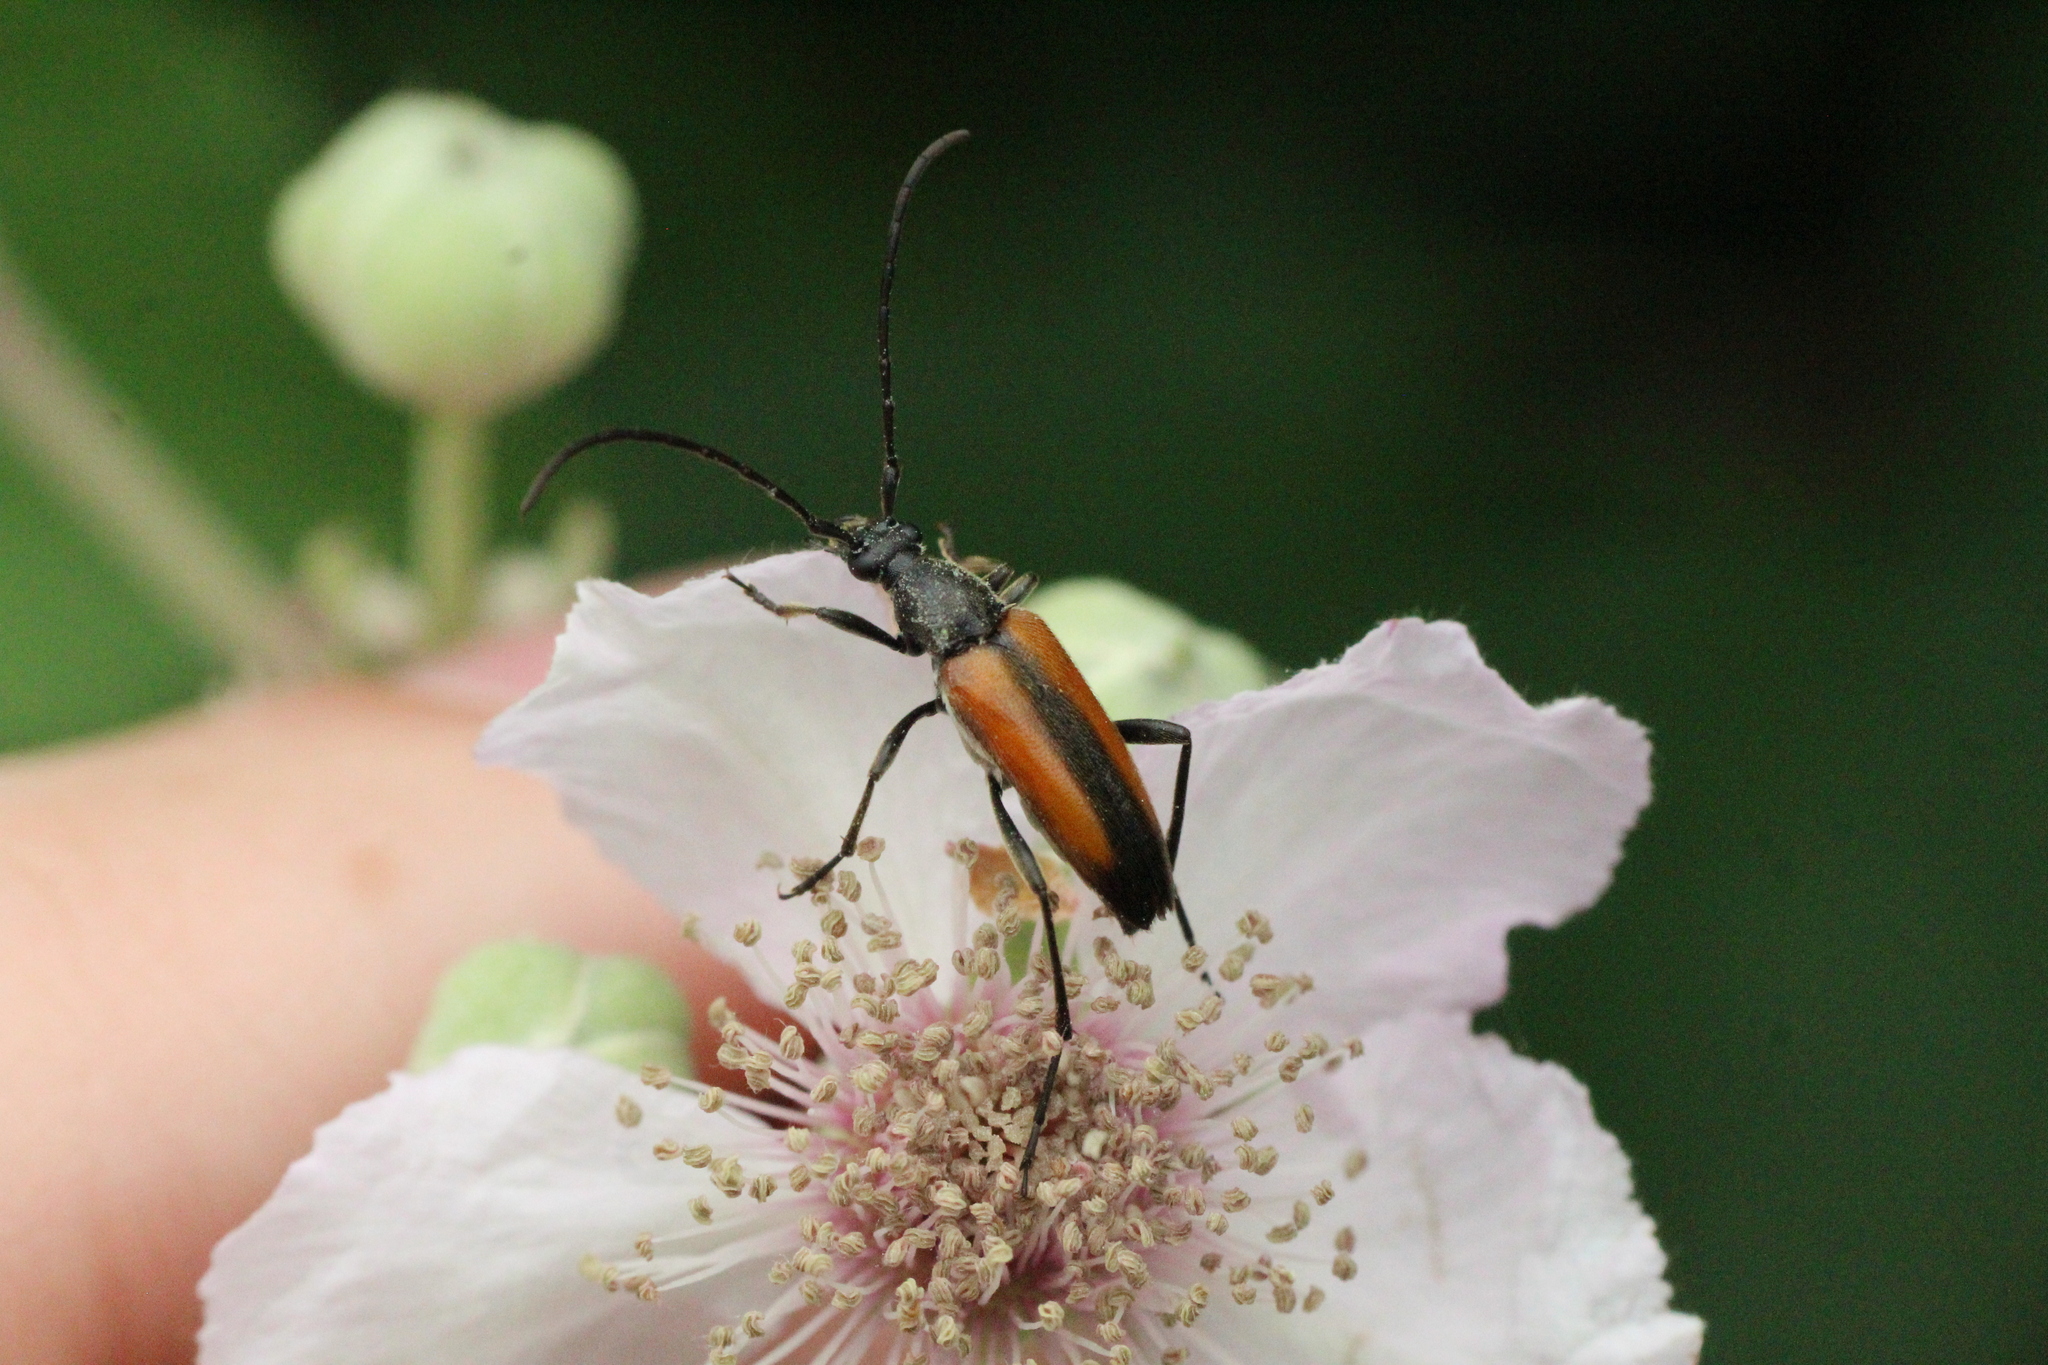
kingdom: Animalia
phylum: Arthropoda
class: Insecta
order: Coleoptera
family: Cerambycidae
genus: Stenurella
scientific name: Stenurella melanura
